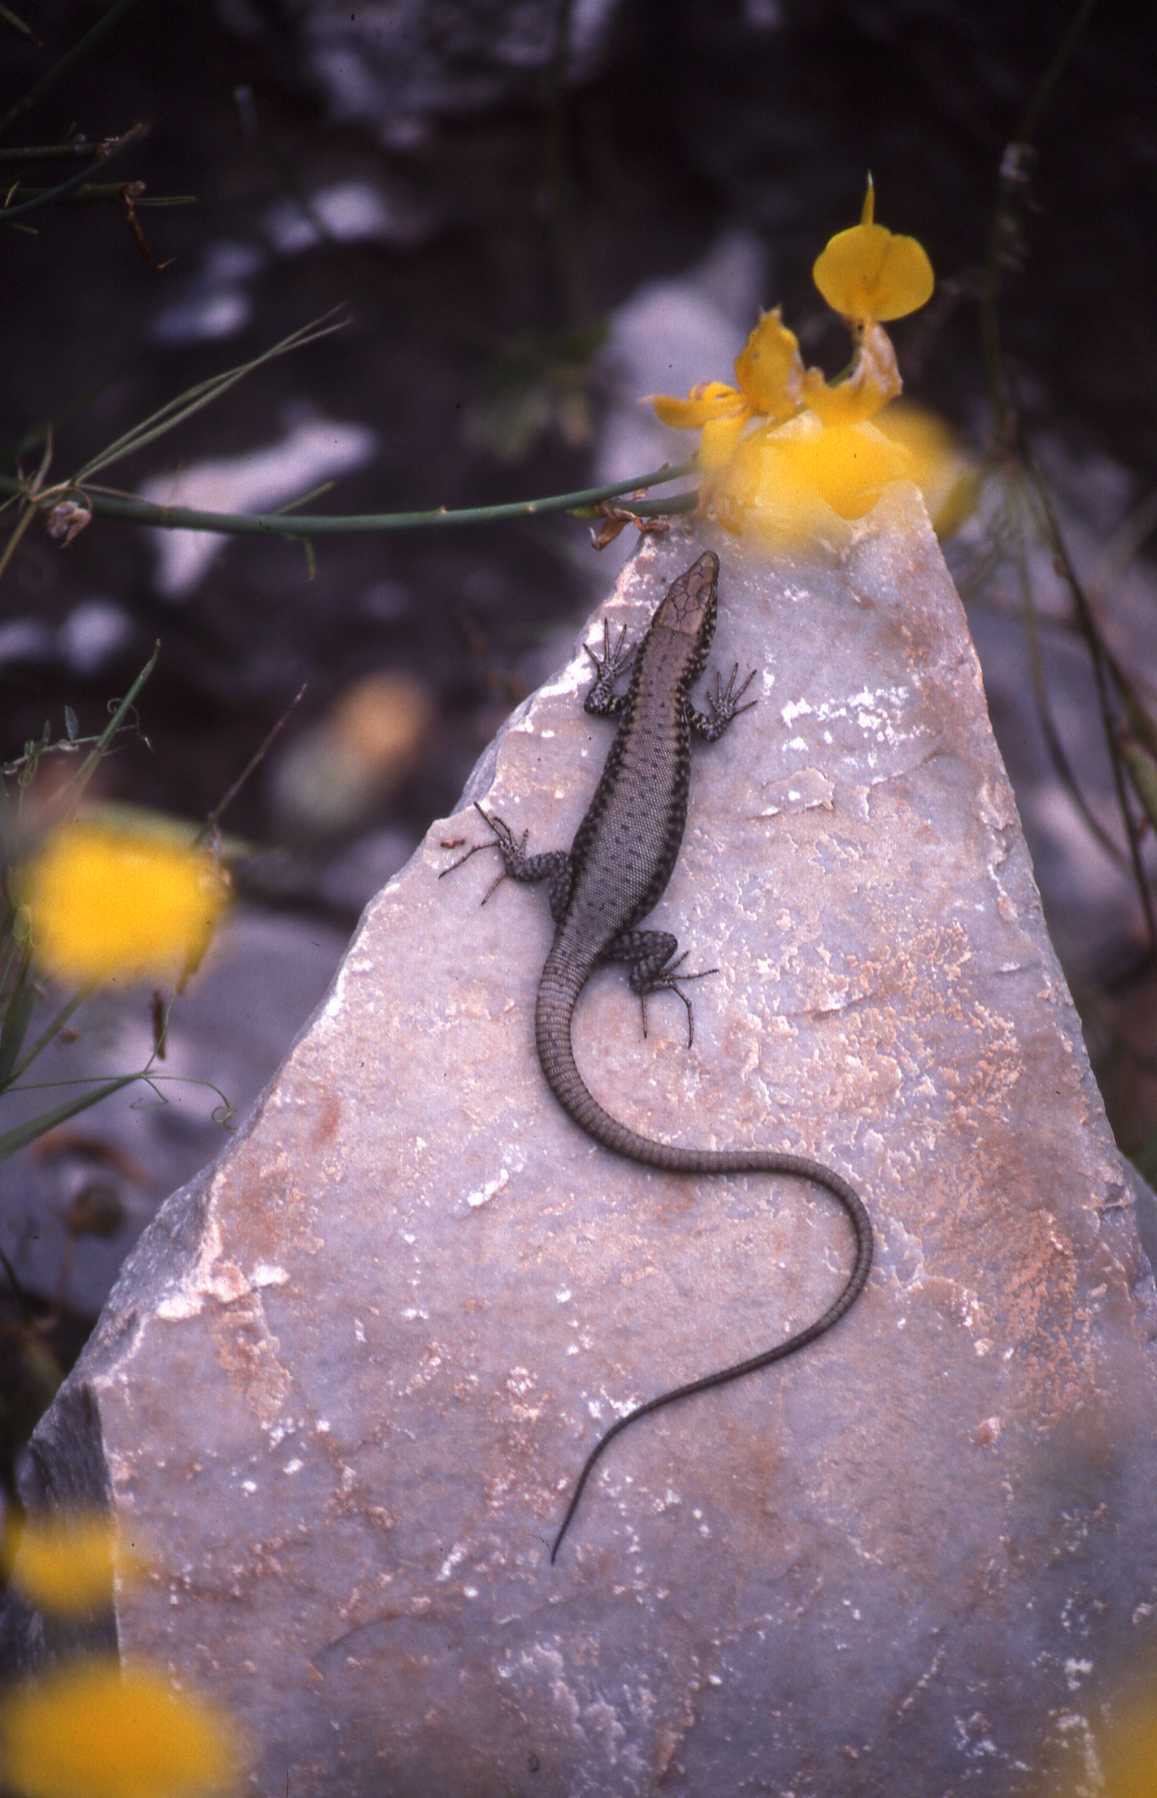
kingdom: Animalia
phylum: Chordata
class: Squamata
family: Lacertidae
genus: Hellenolacerta
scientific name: Hellenolacerta graeca
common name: Greek rock lizard
